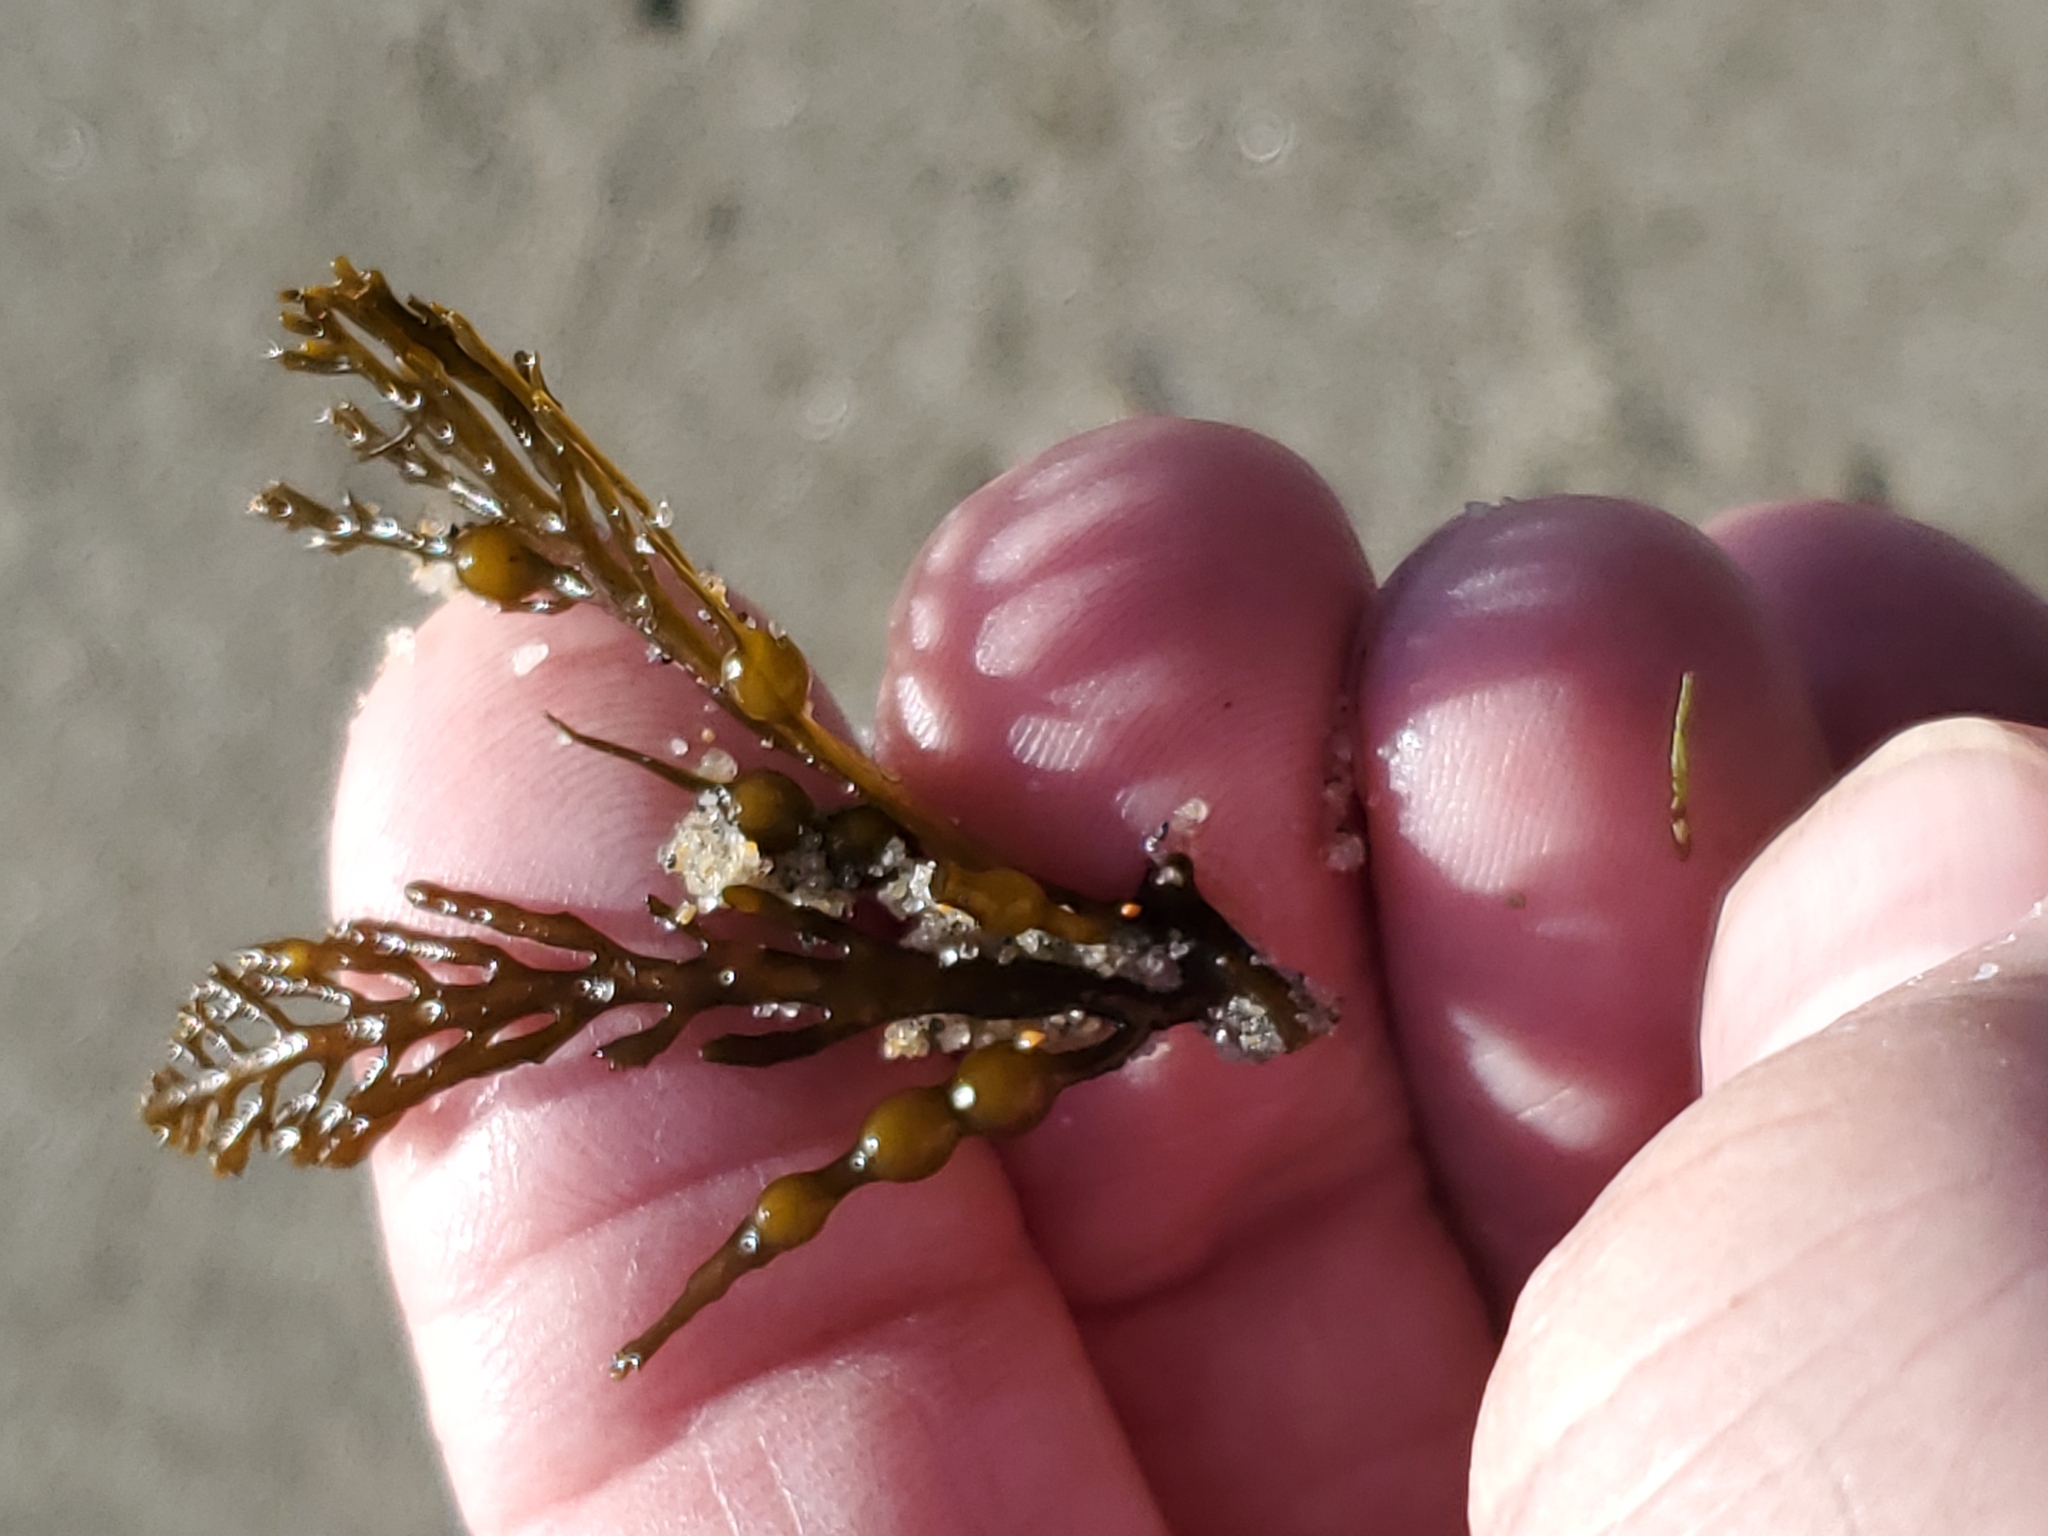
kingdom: Chromista
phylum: Ochrophyta
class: Phaeophyceae
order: Fucales
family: Sargassaceae
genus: Stephanocystis
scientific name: Stephanocystis
